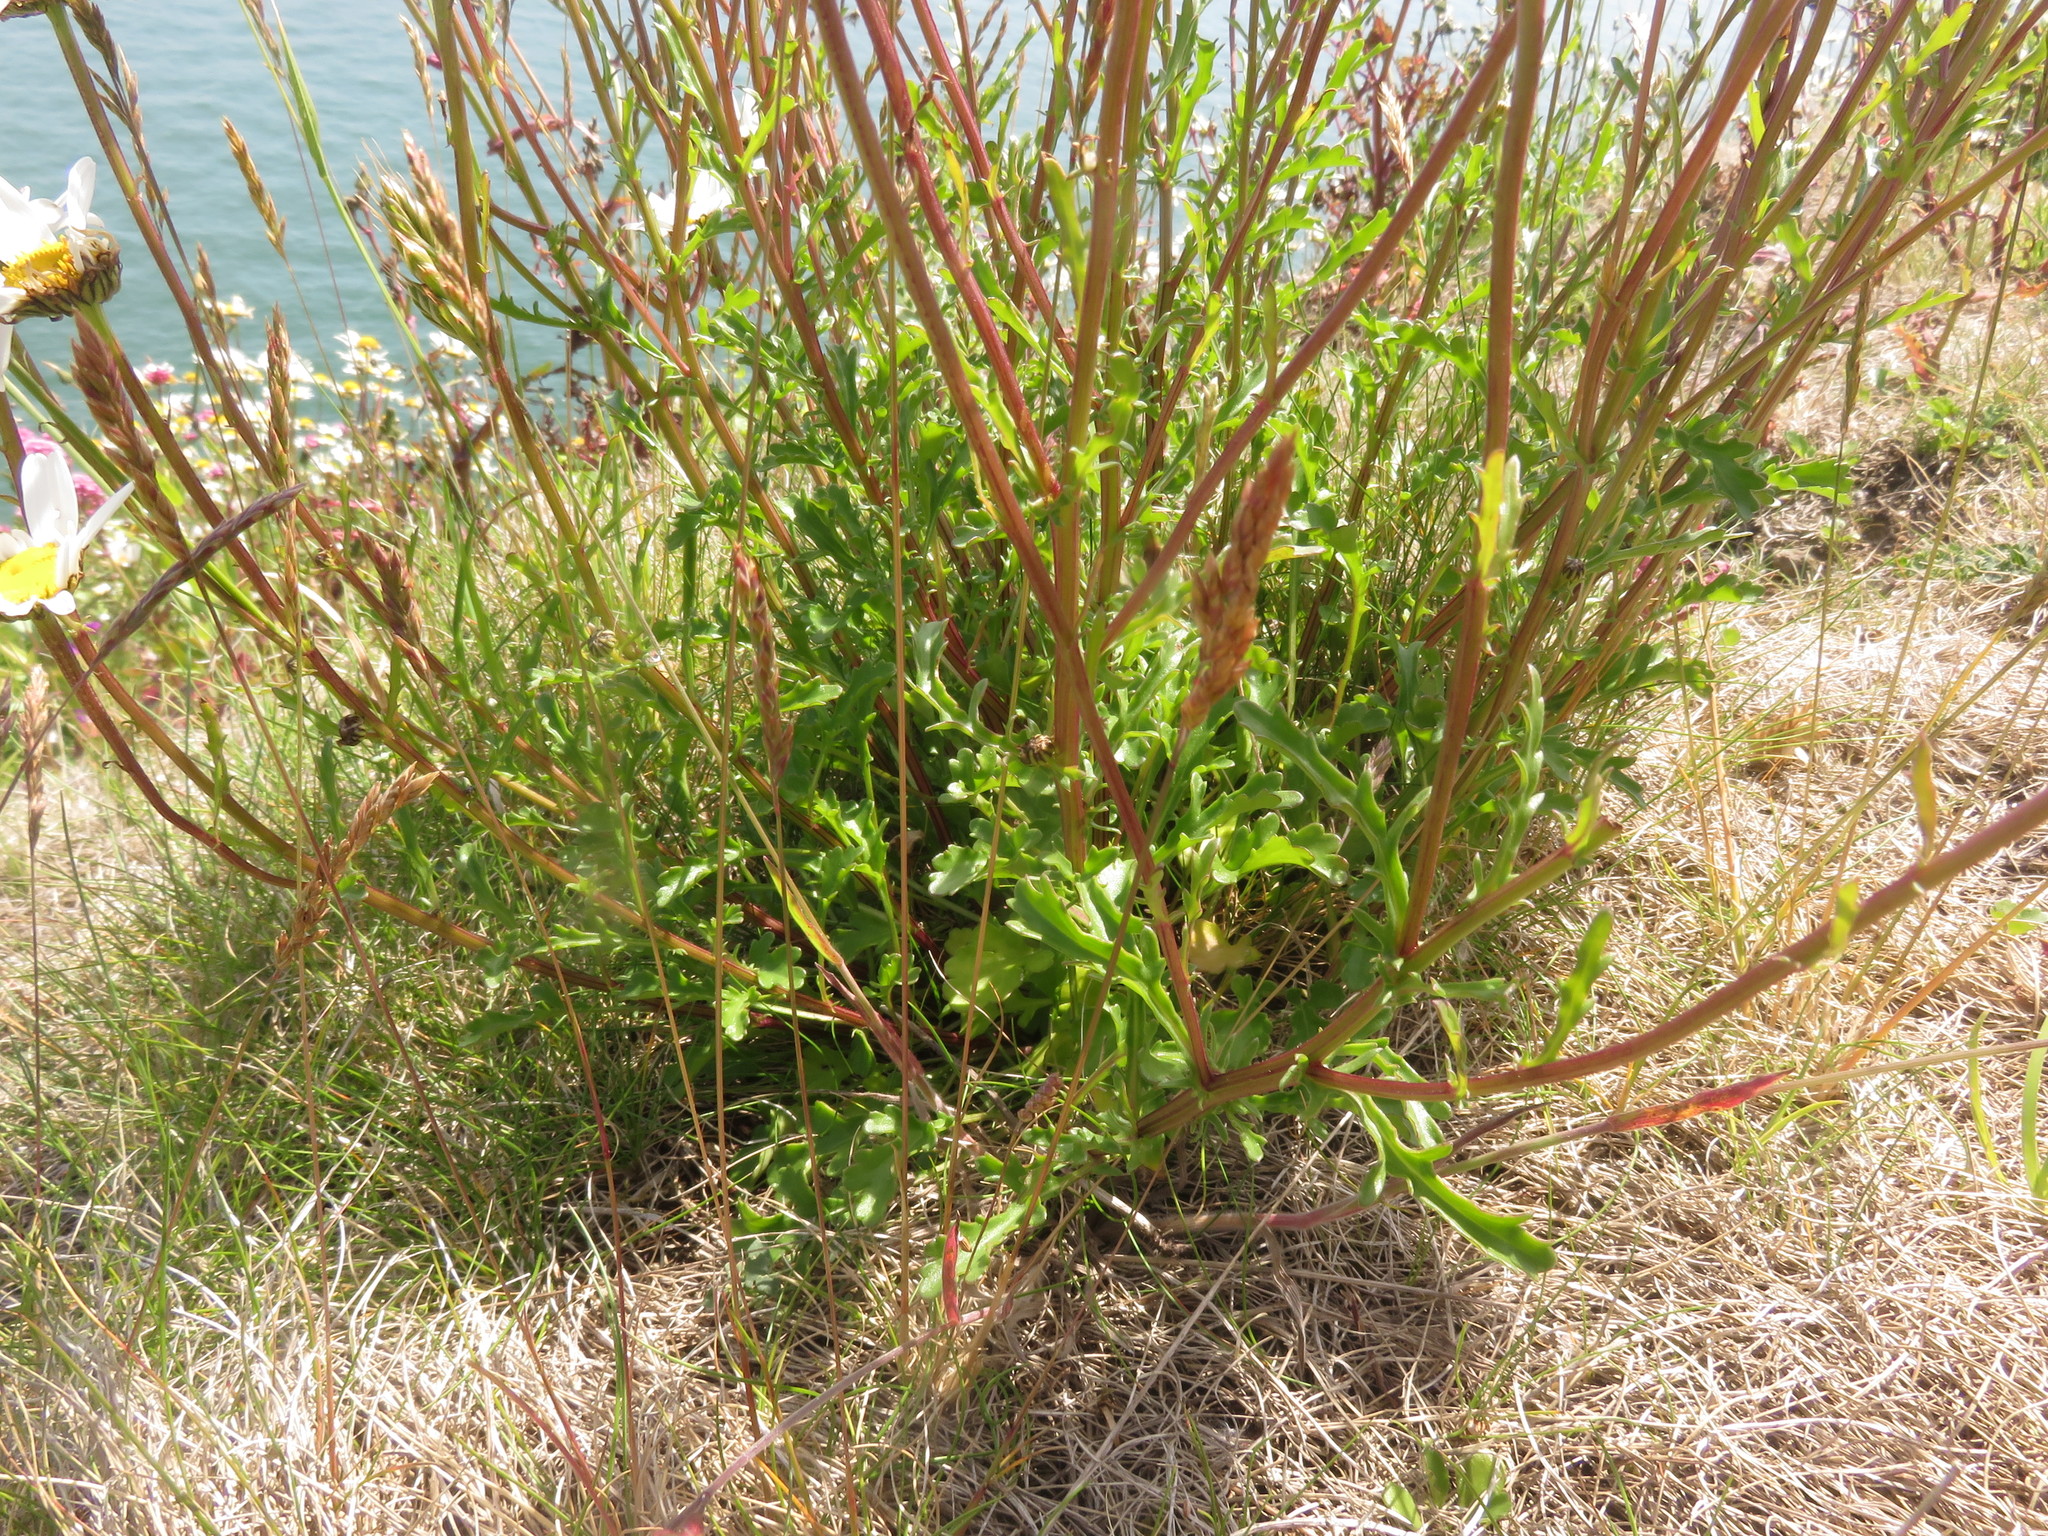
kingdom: Plantae
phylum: Tracheophyta
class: Magnoliopsida
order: Asterales
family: Asteraceae
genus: Leucanthemum
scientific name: Leucanthemum vulgare
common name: Oxeye daisy
